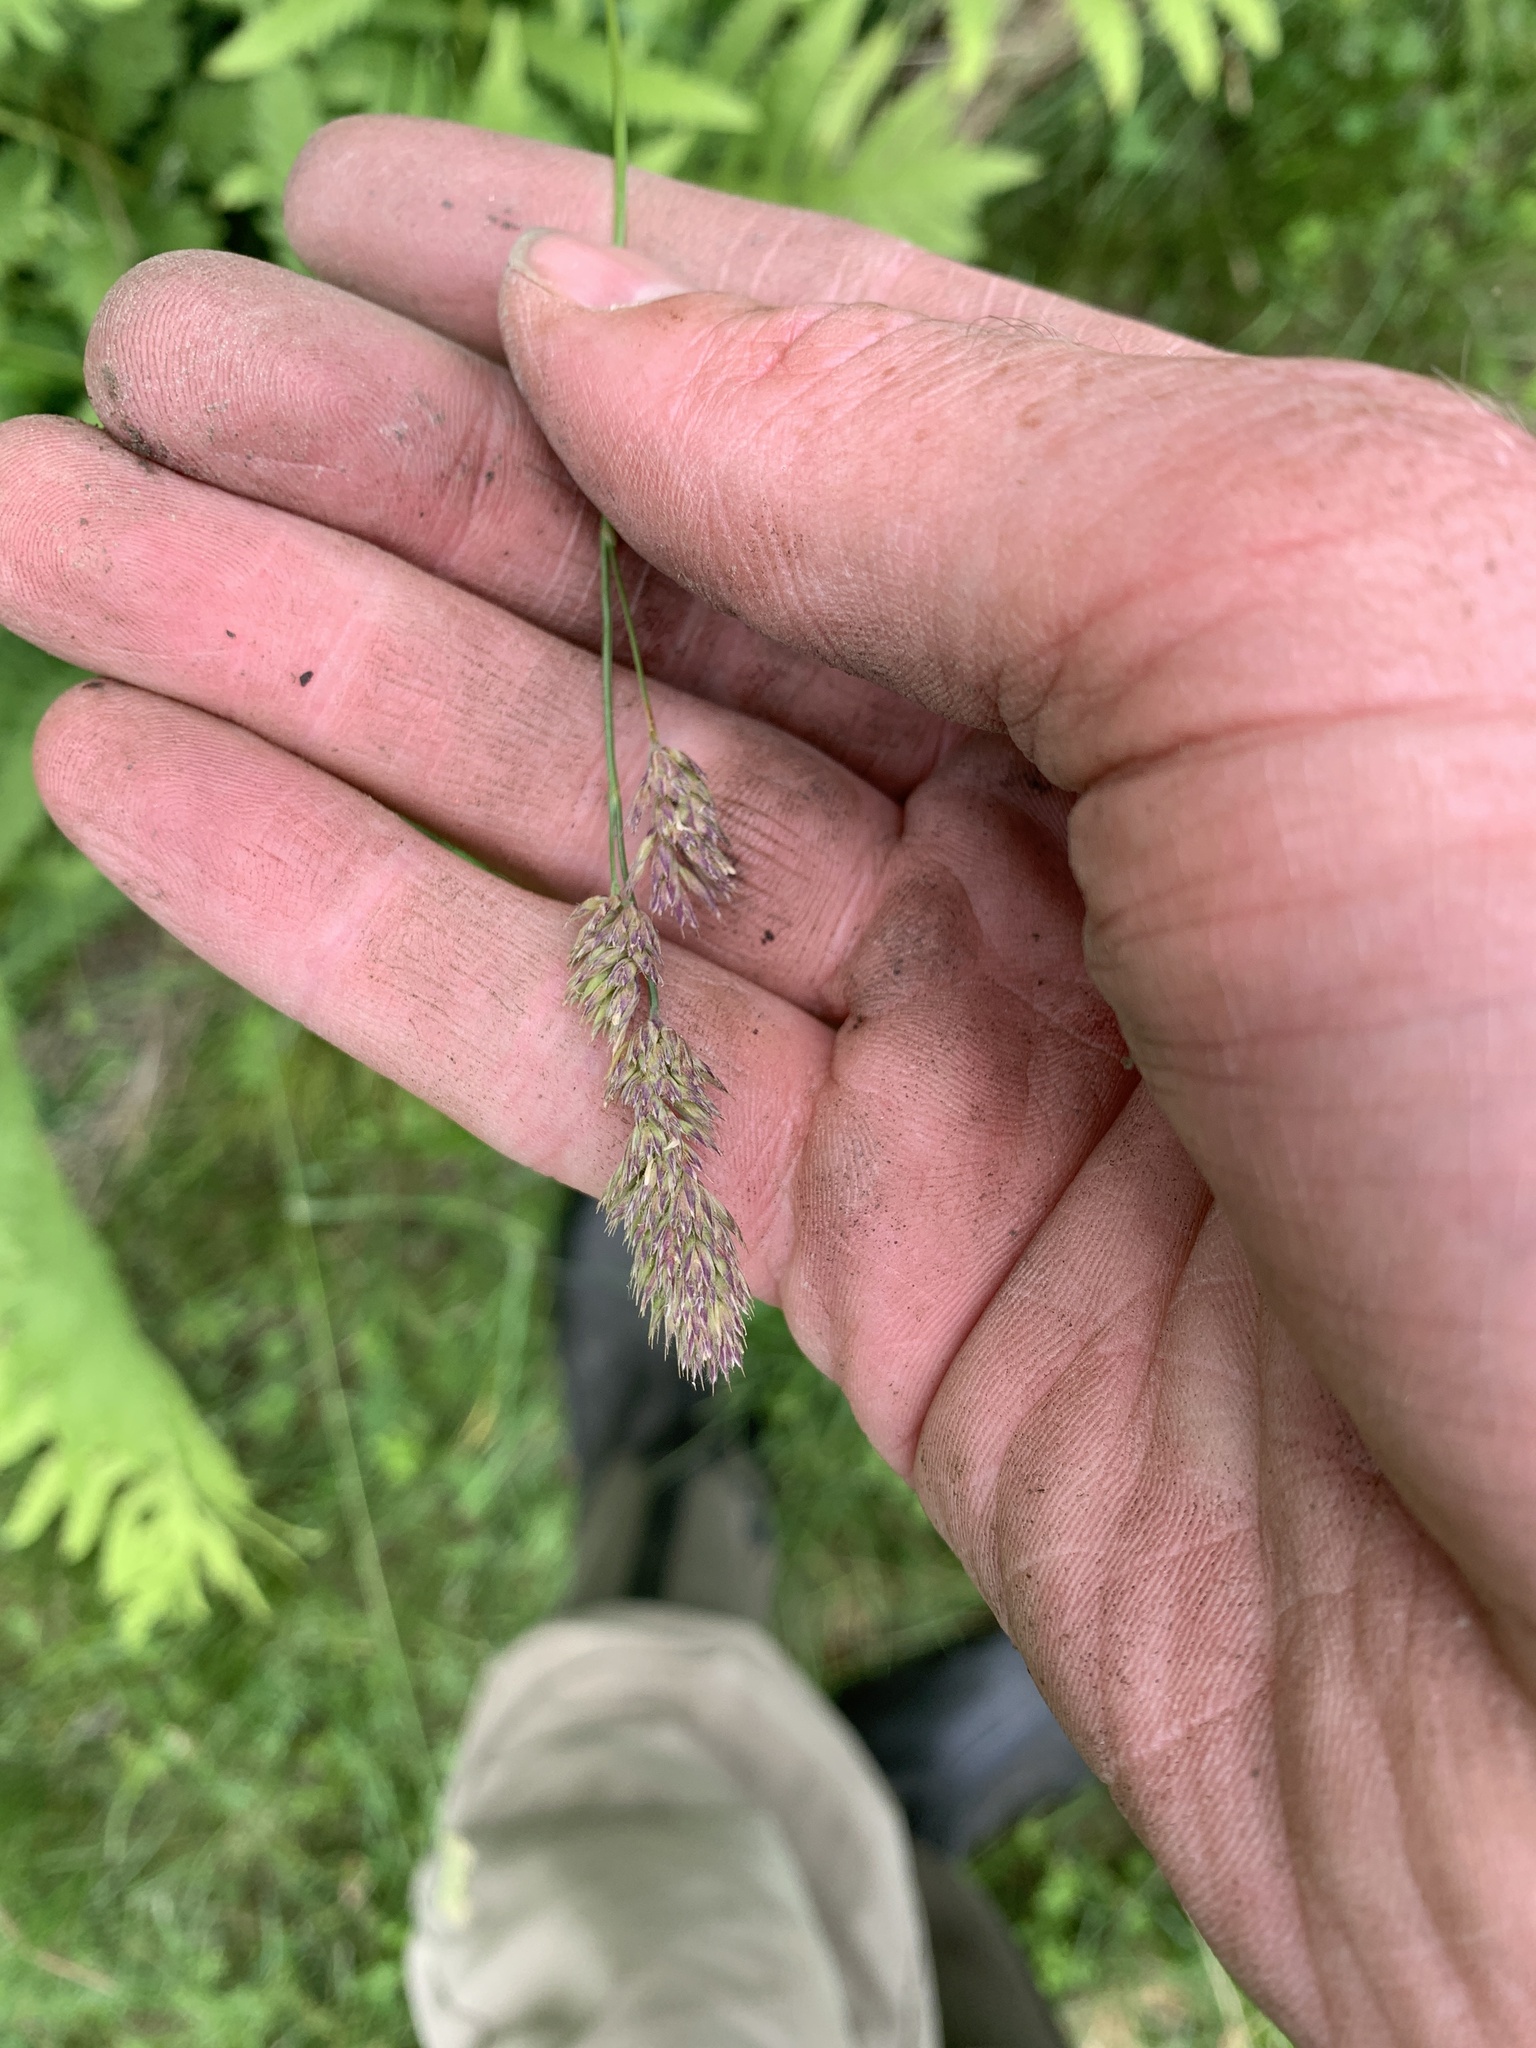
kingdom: Plantae
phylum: Tracheophyta
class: Liliopsida
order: Poales
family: Poaceae
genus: Dactylis
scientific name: Dactylis glomerata
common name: Orchardgrass
